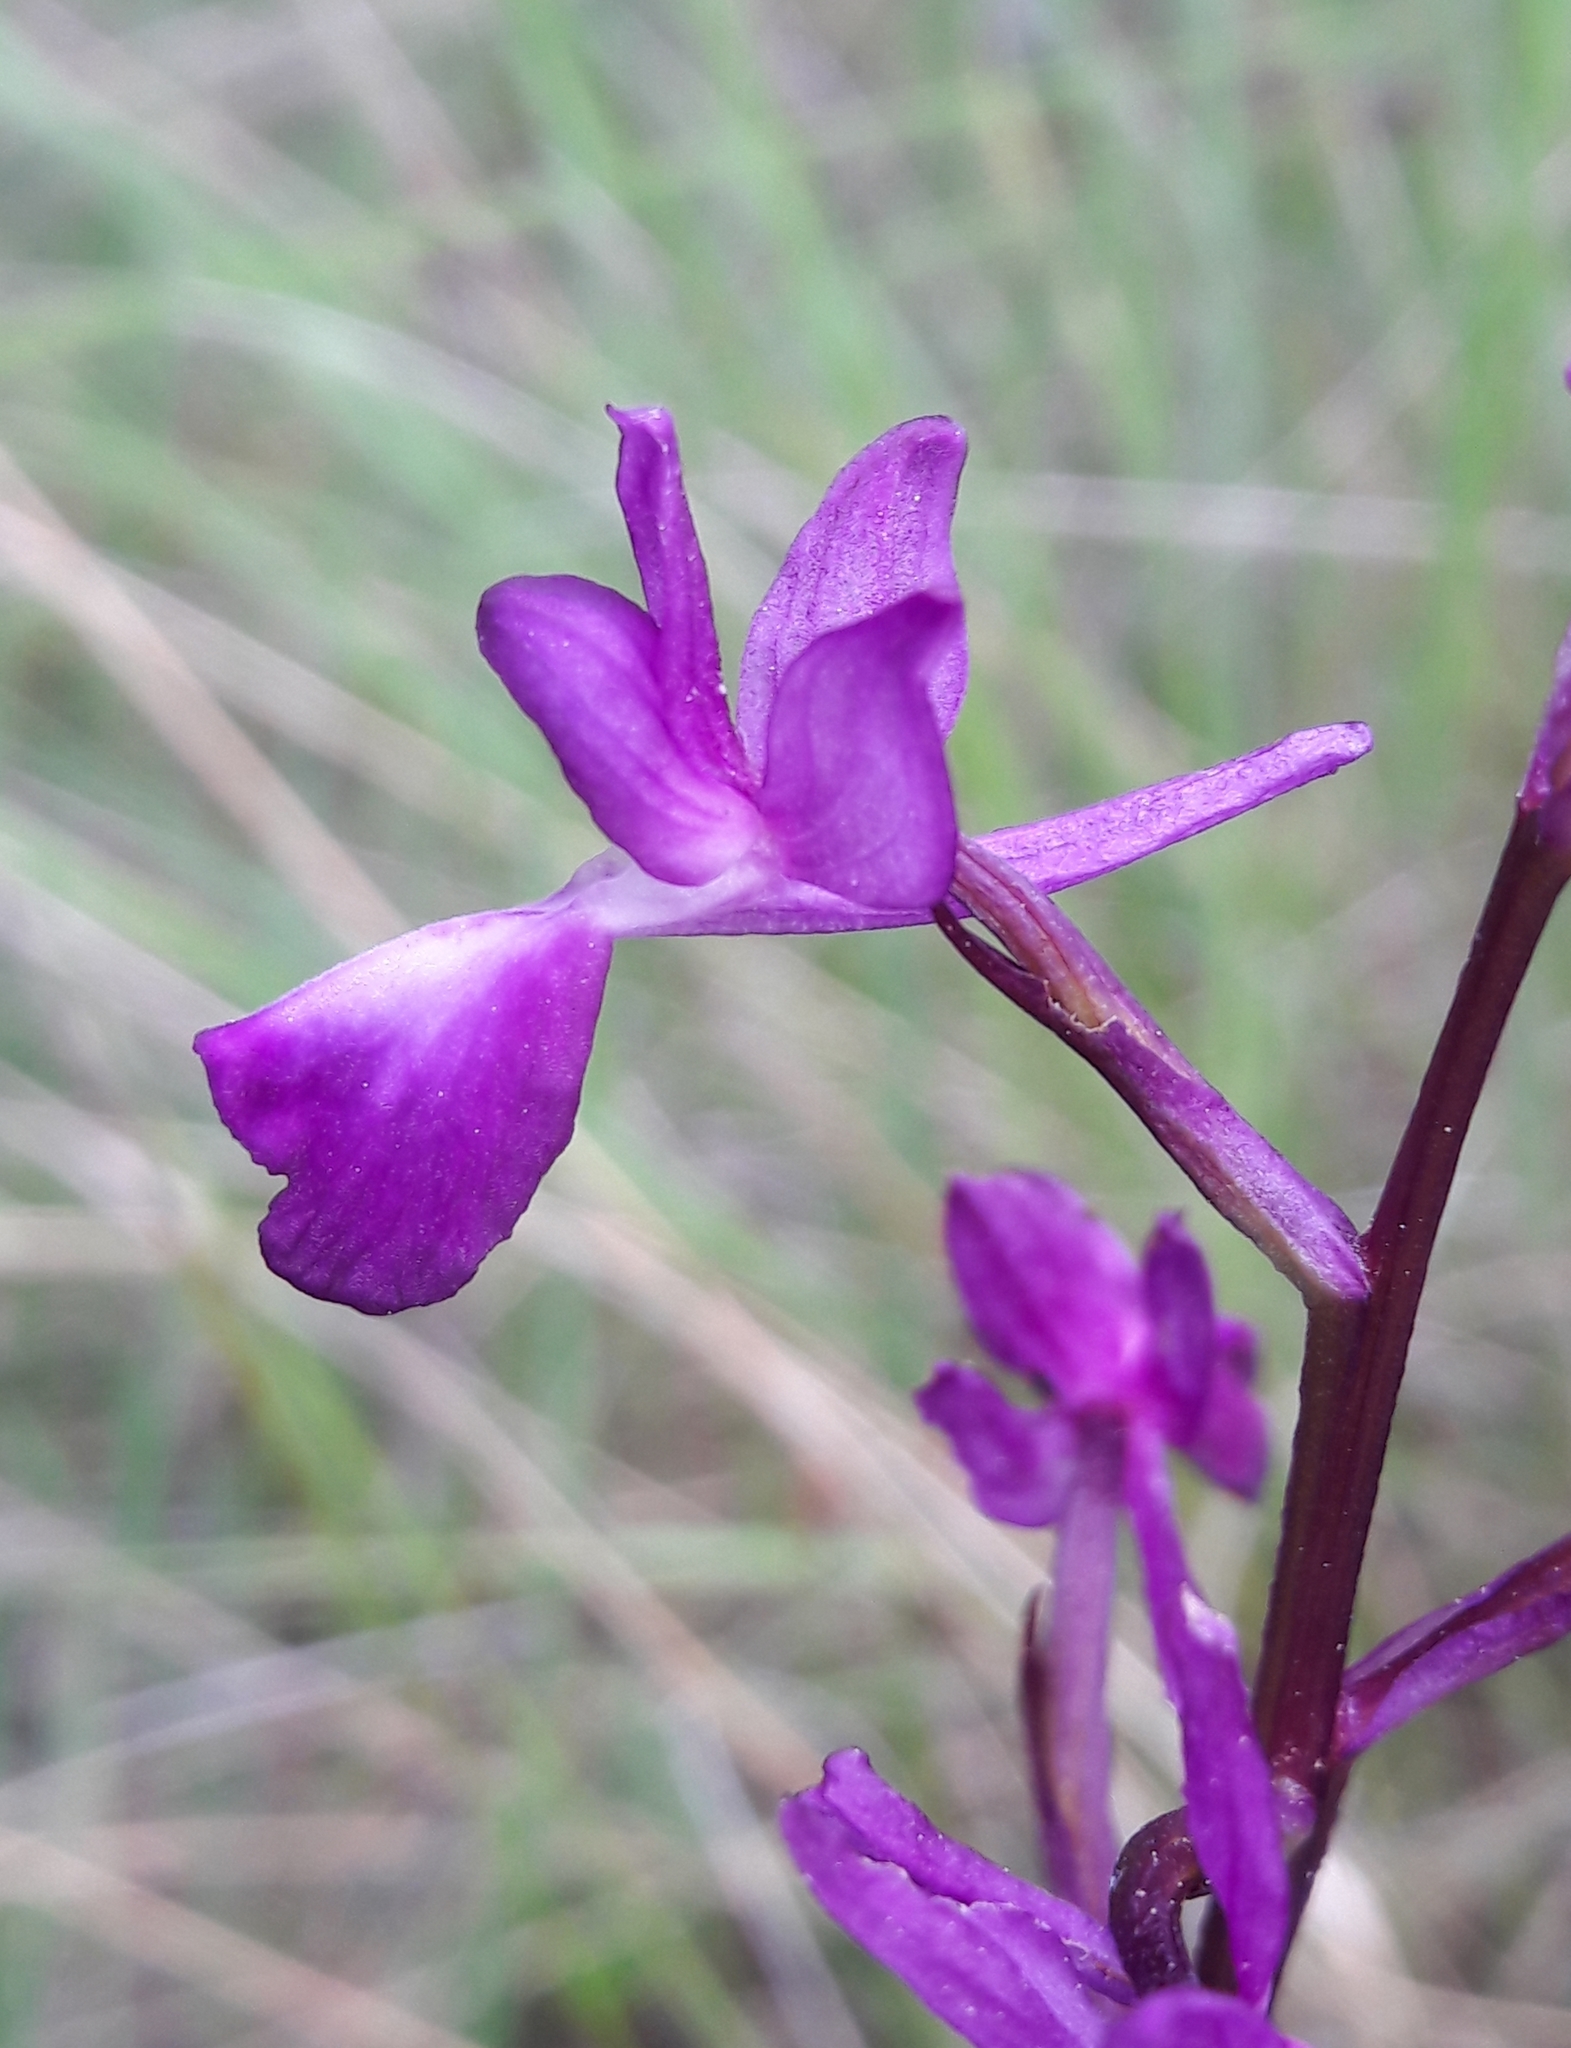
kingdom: Plantae
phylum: Tracheophyta
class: Liliopsida
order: Asparagales
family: Orchidaceae
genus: Anacamptis
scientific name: Anacamptis laxiflora
